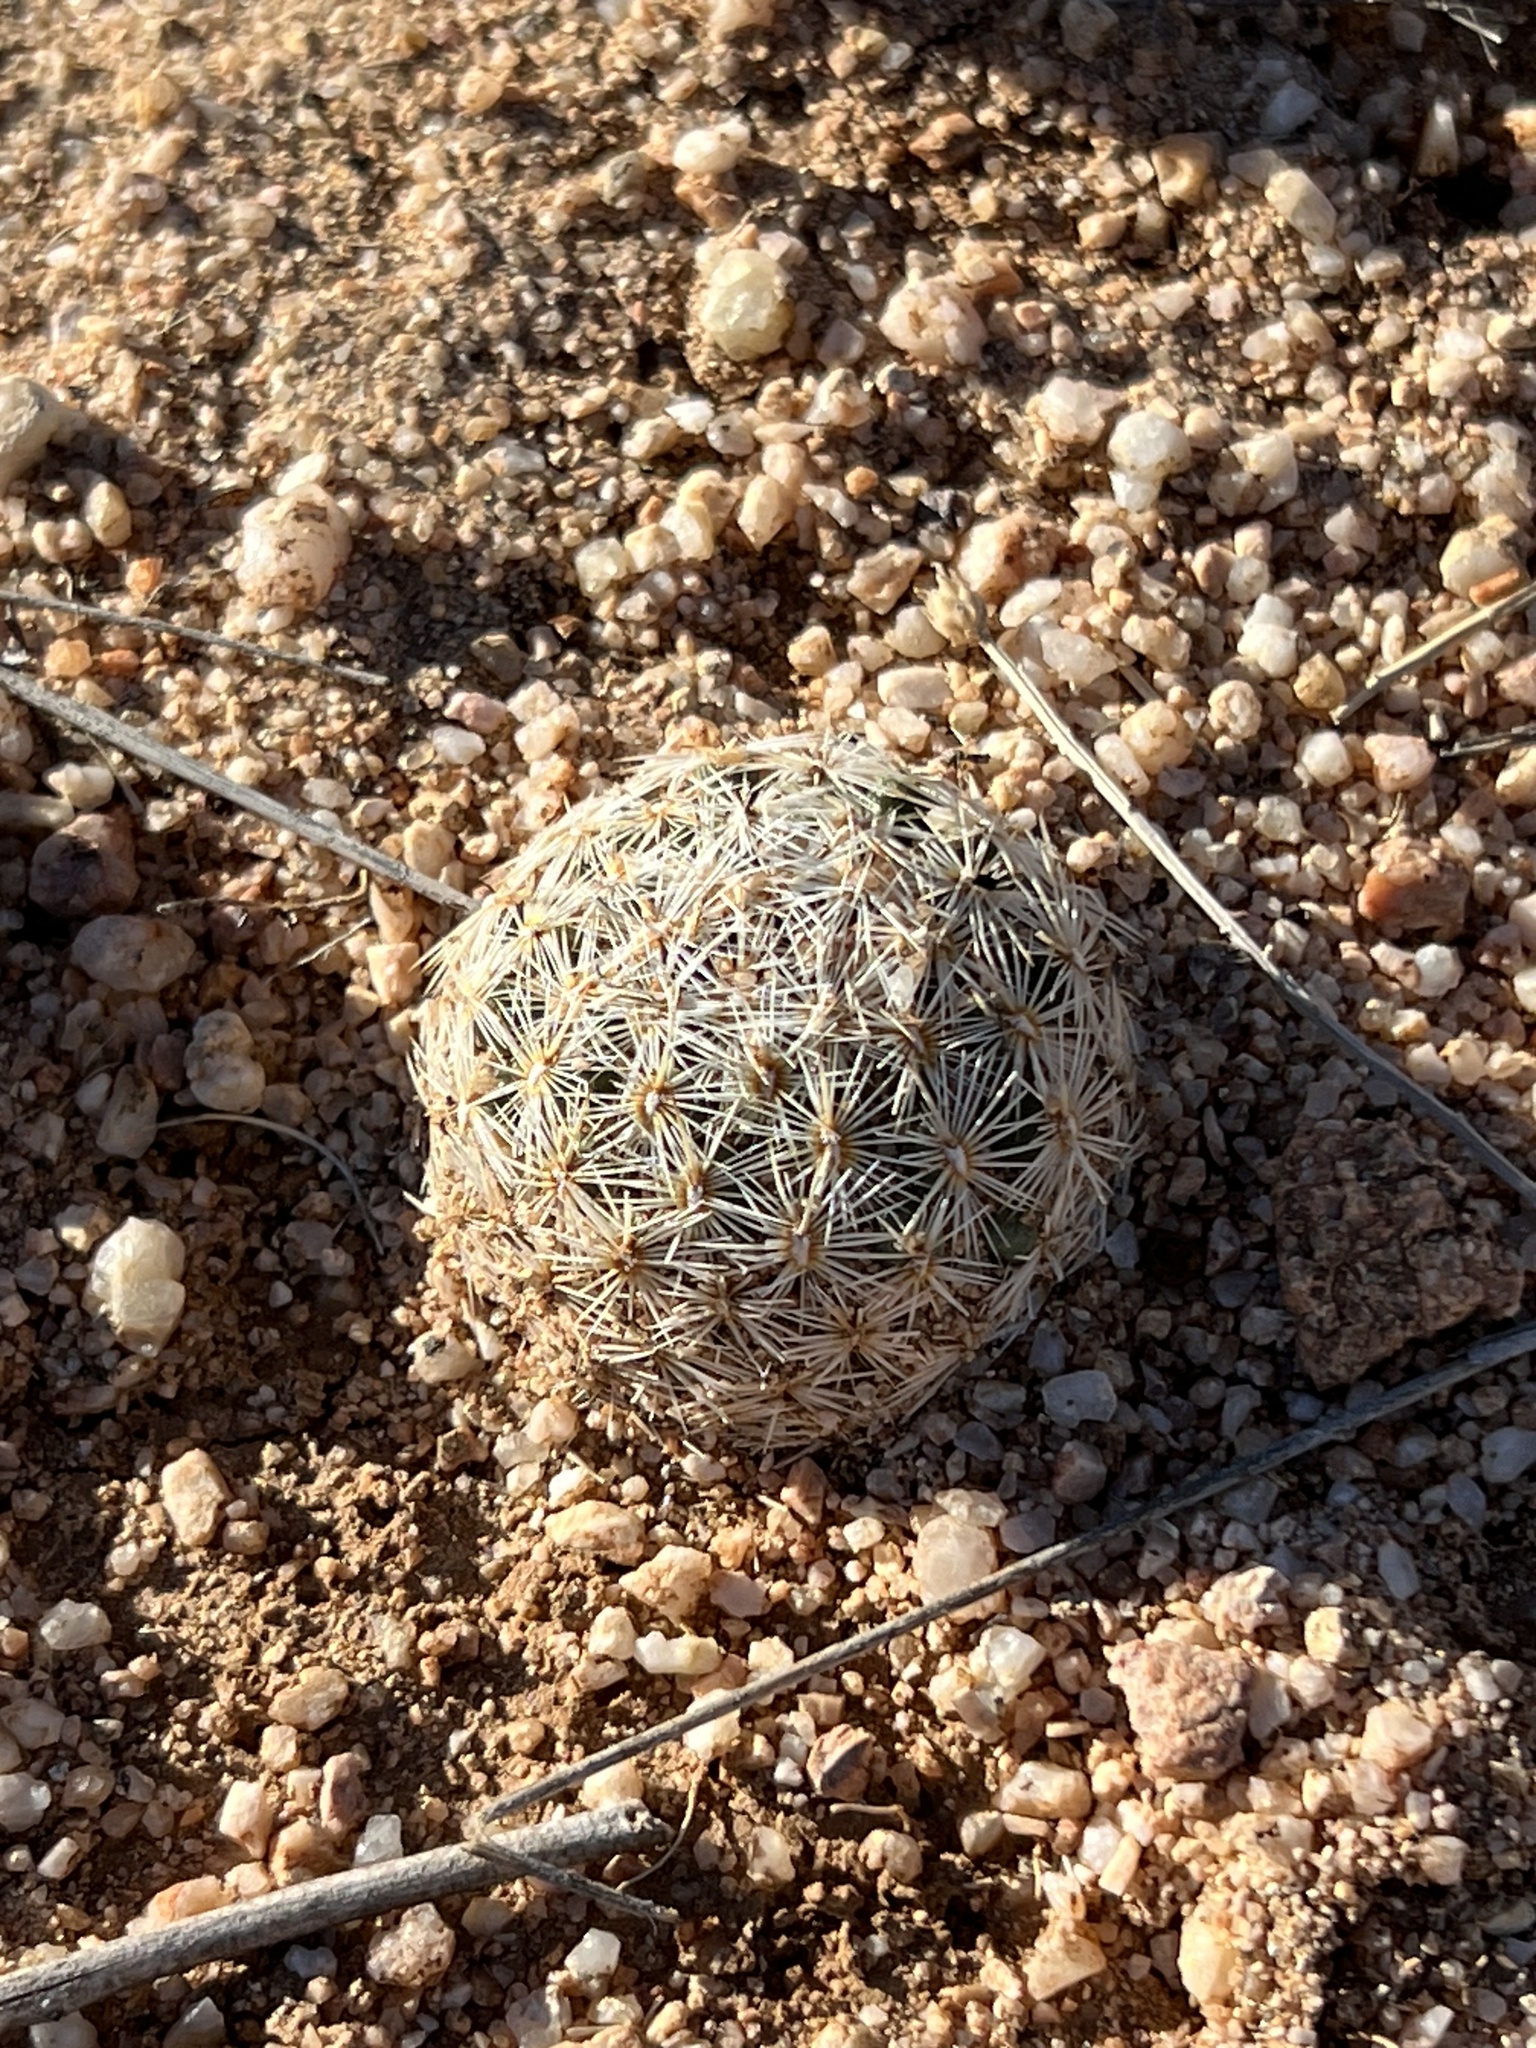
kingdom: Plantae
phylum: Tracheophyta
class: Magnoliopsida
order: Caryophyllales
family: Cactaceae
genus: Pelecyphora
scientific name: Pelecyphora vivipara
